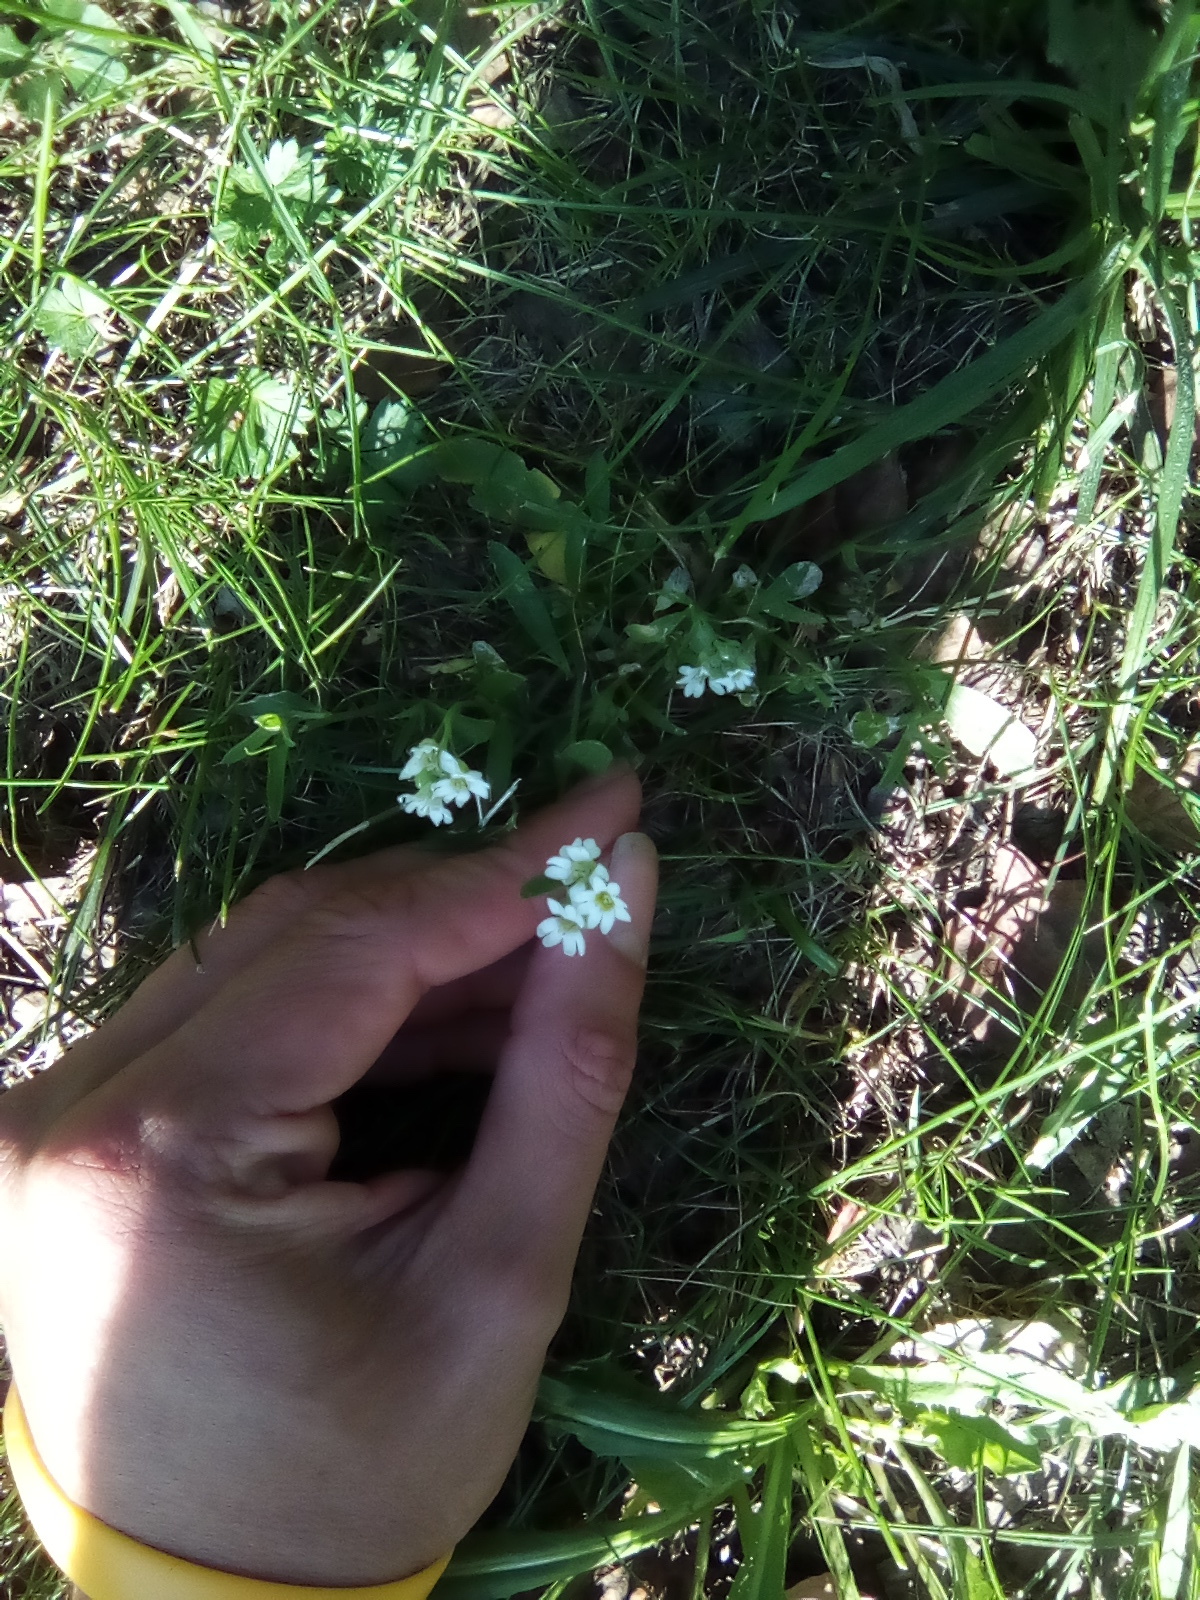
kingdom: Plantae
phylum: Tracheophyta
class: Magnoliopsida
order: Brassicales
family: Brassicaceae
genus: Berteroa
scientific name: Berteroa incana
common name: Hoary alison
